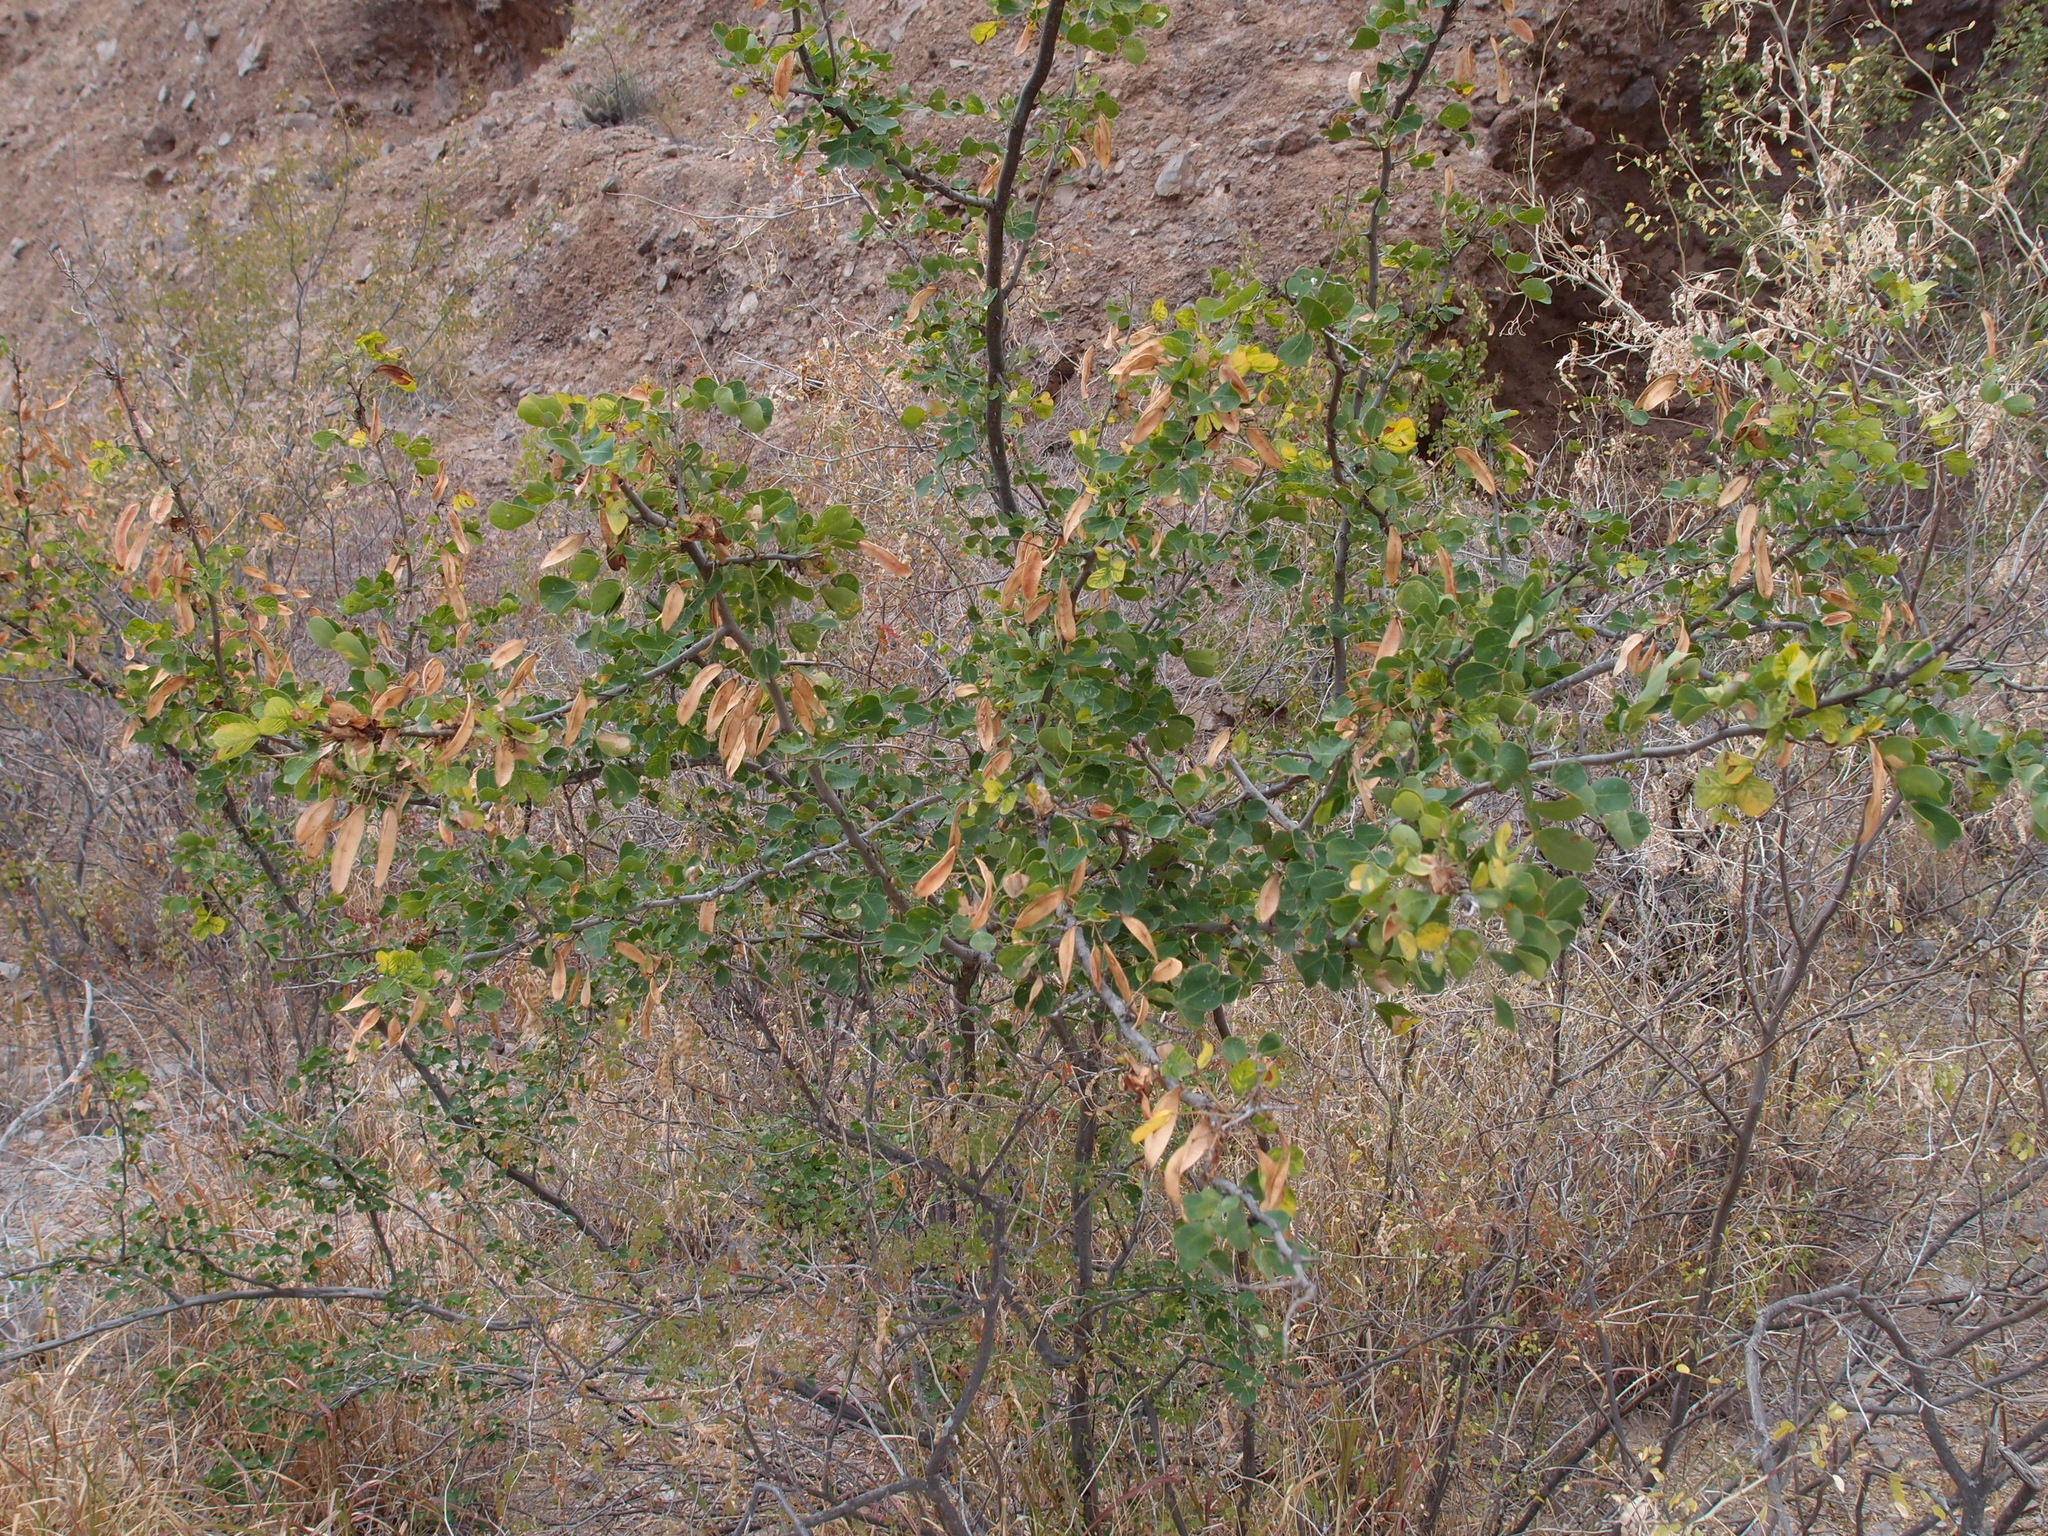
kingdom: Plantae
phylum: Tracheophyta
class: Magnoliopsida
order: Fabales
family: Fabaceae
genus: Haematoxylum
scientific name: Haematoxylum brasiletto
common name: Peachwood
